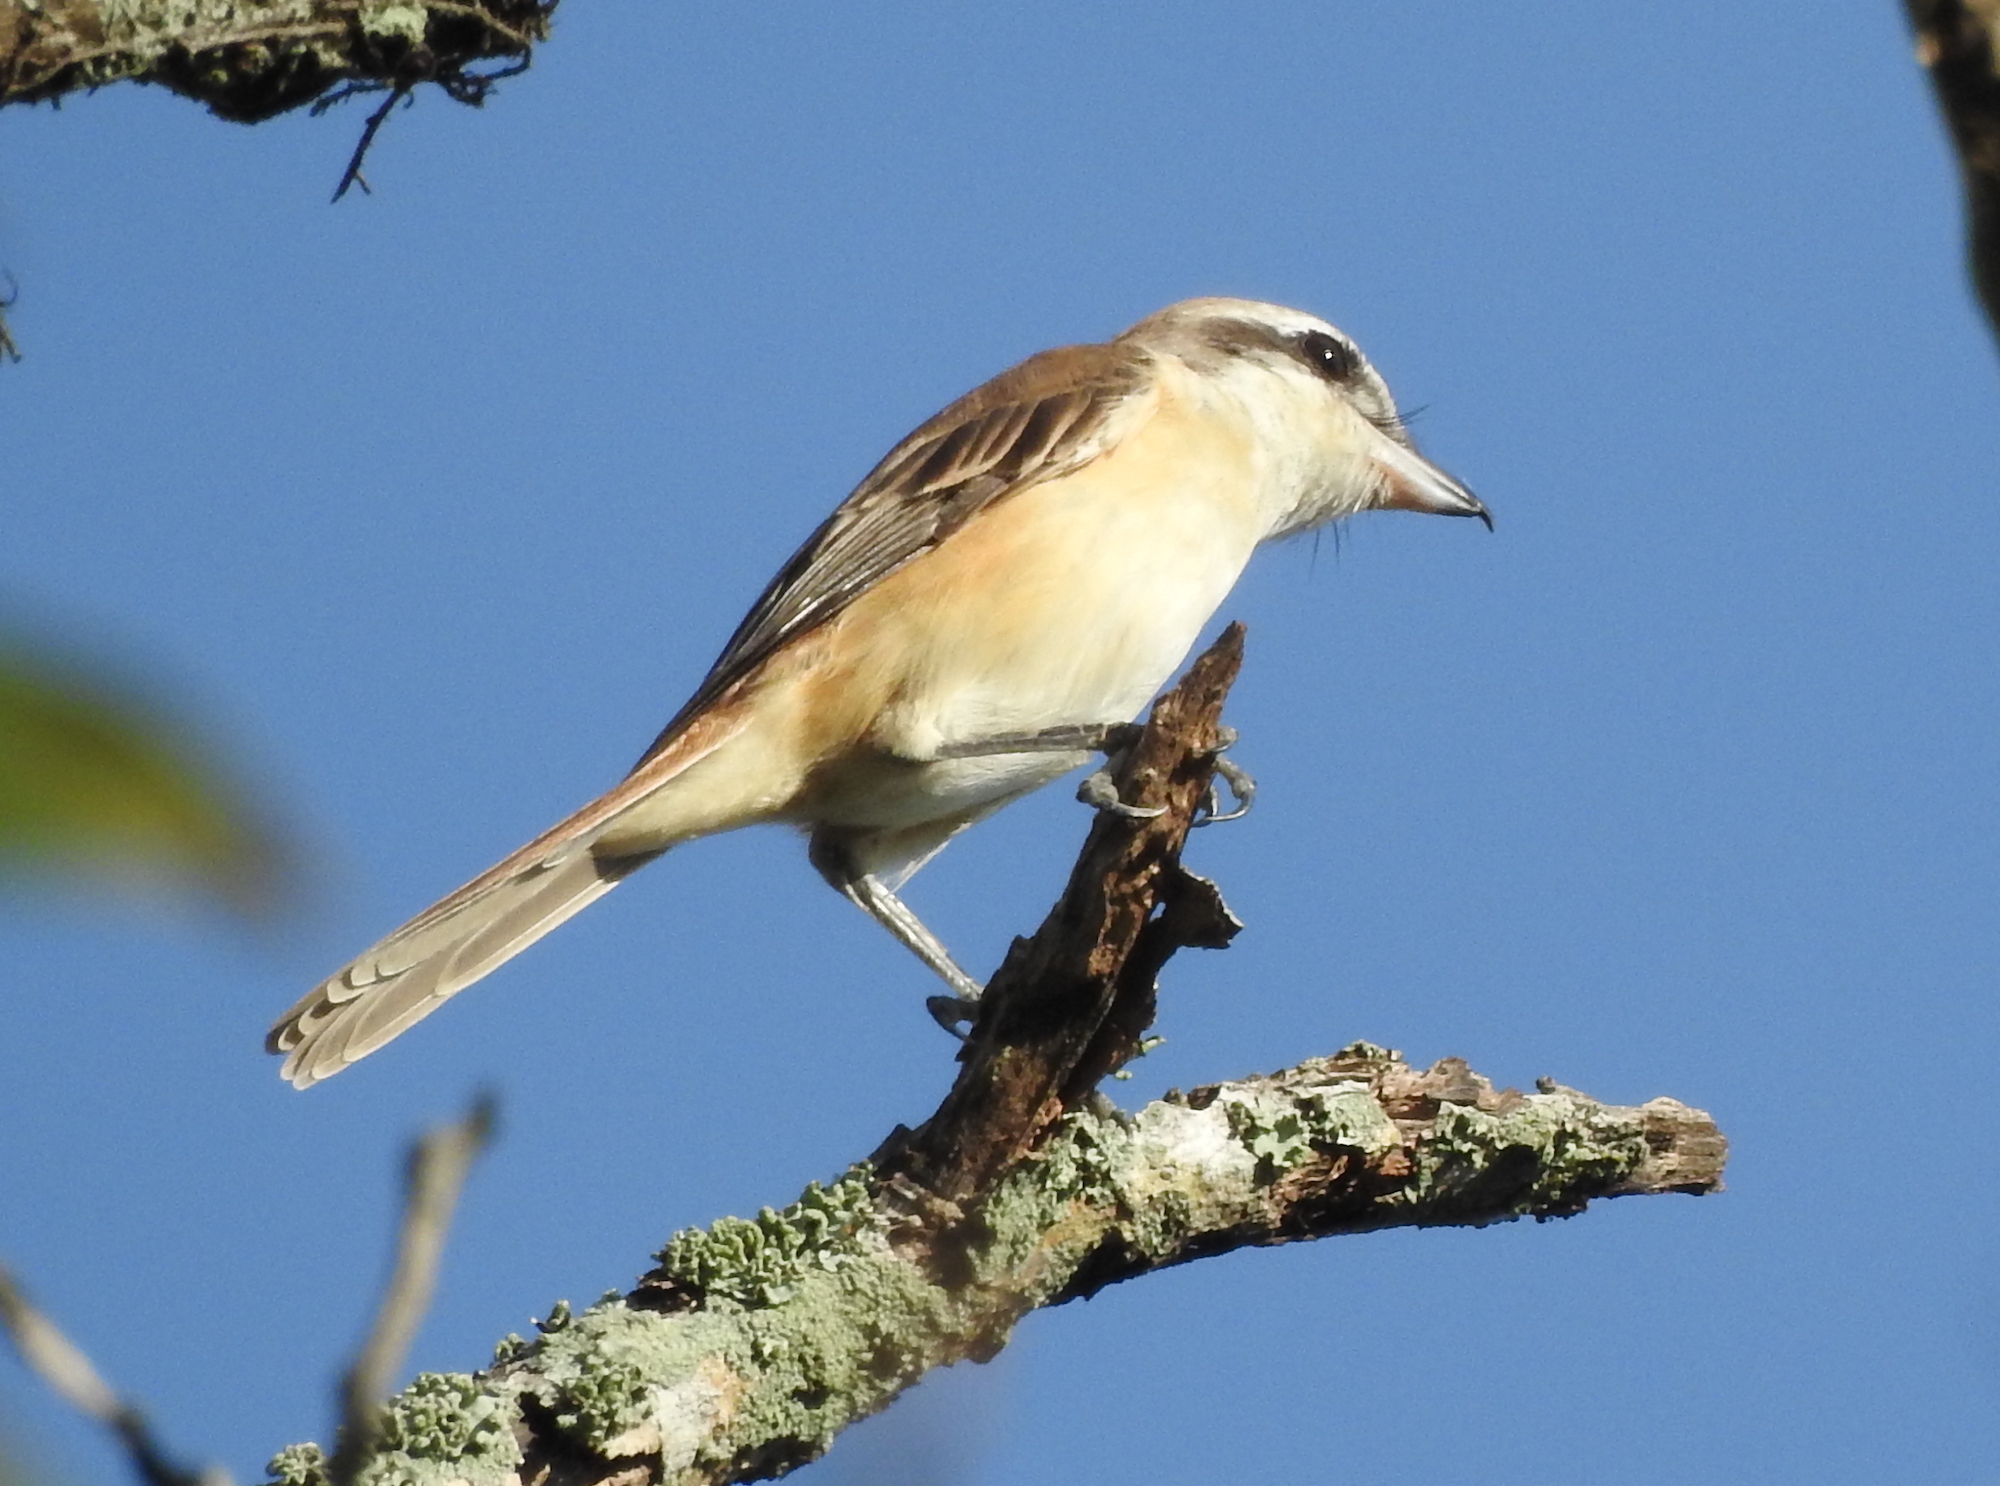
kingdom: Animalia
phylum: Chordata
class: Aves
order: Passeriformes
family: Laniidae
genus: Lanius
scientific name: Lanius cristatus
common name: Brown shrike
